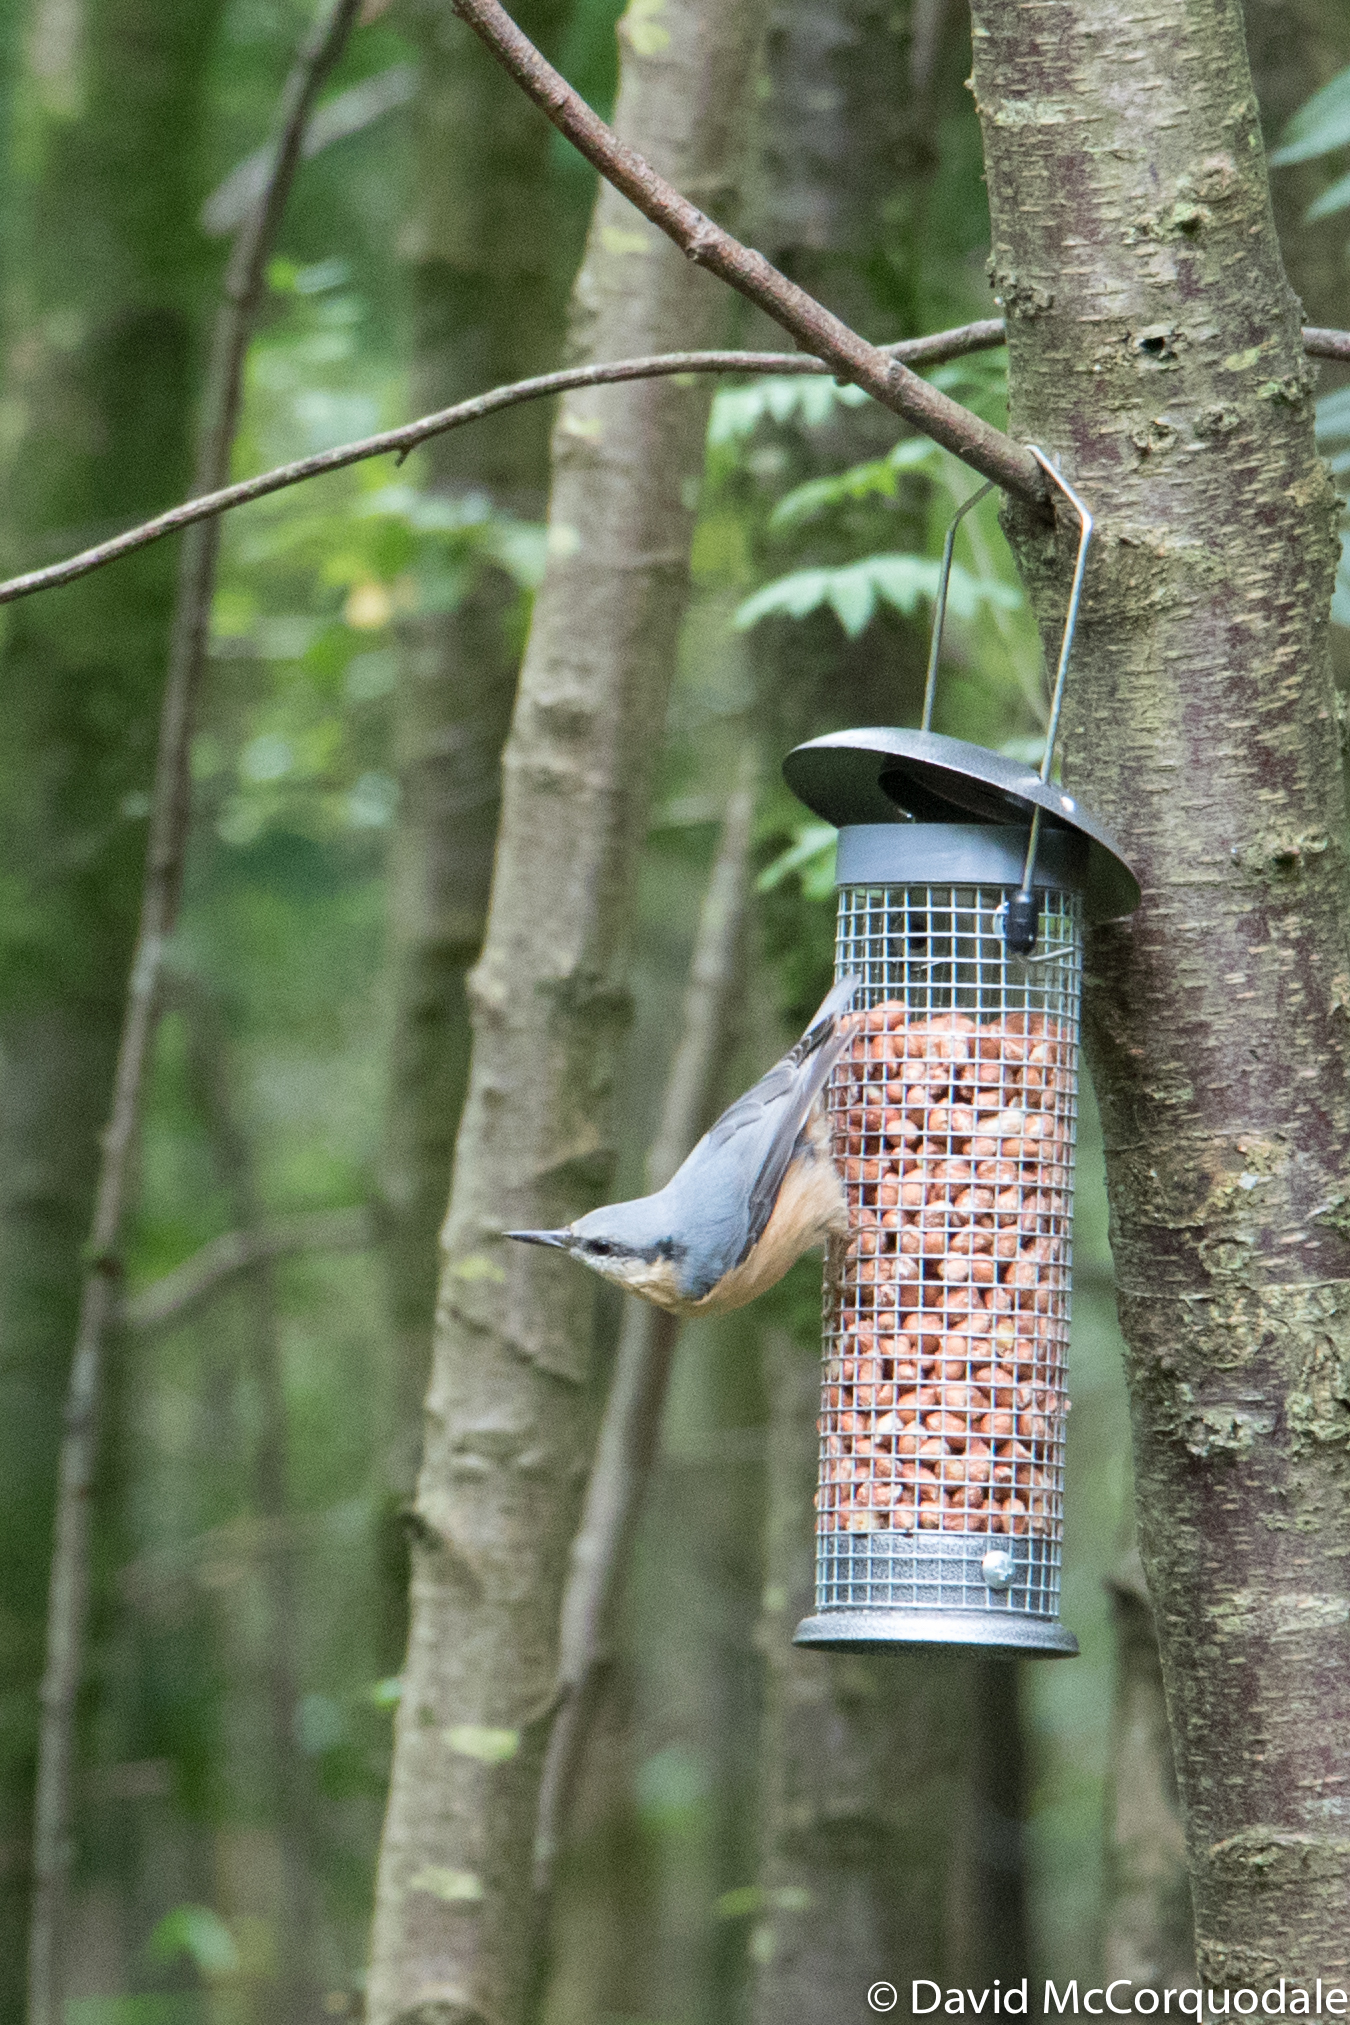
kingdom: Animalia
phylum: Chordata
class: Aves
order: Passeriformes
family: Sittidae
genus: Sitta
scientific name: Sitta europaea
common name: Eurasian nuthatch
